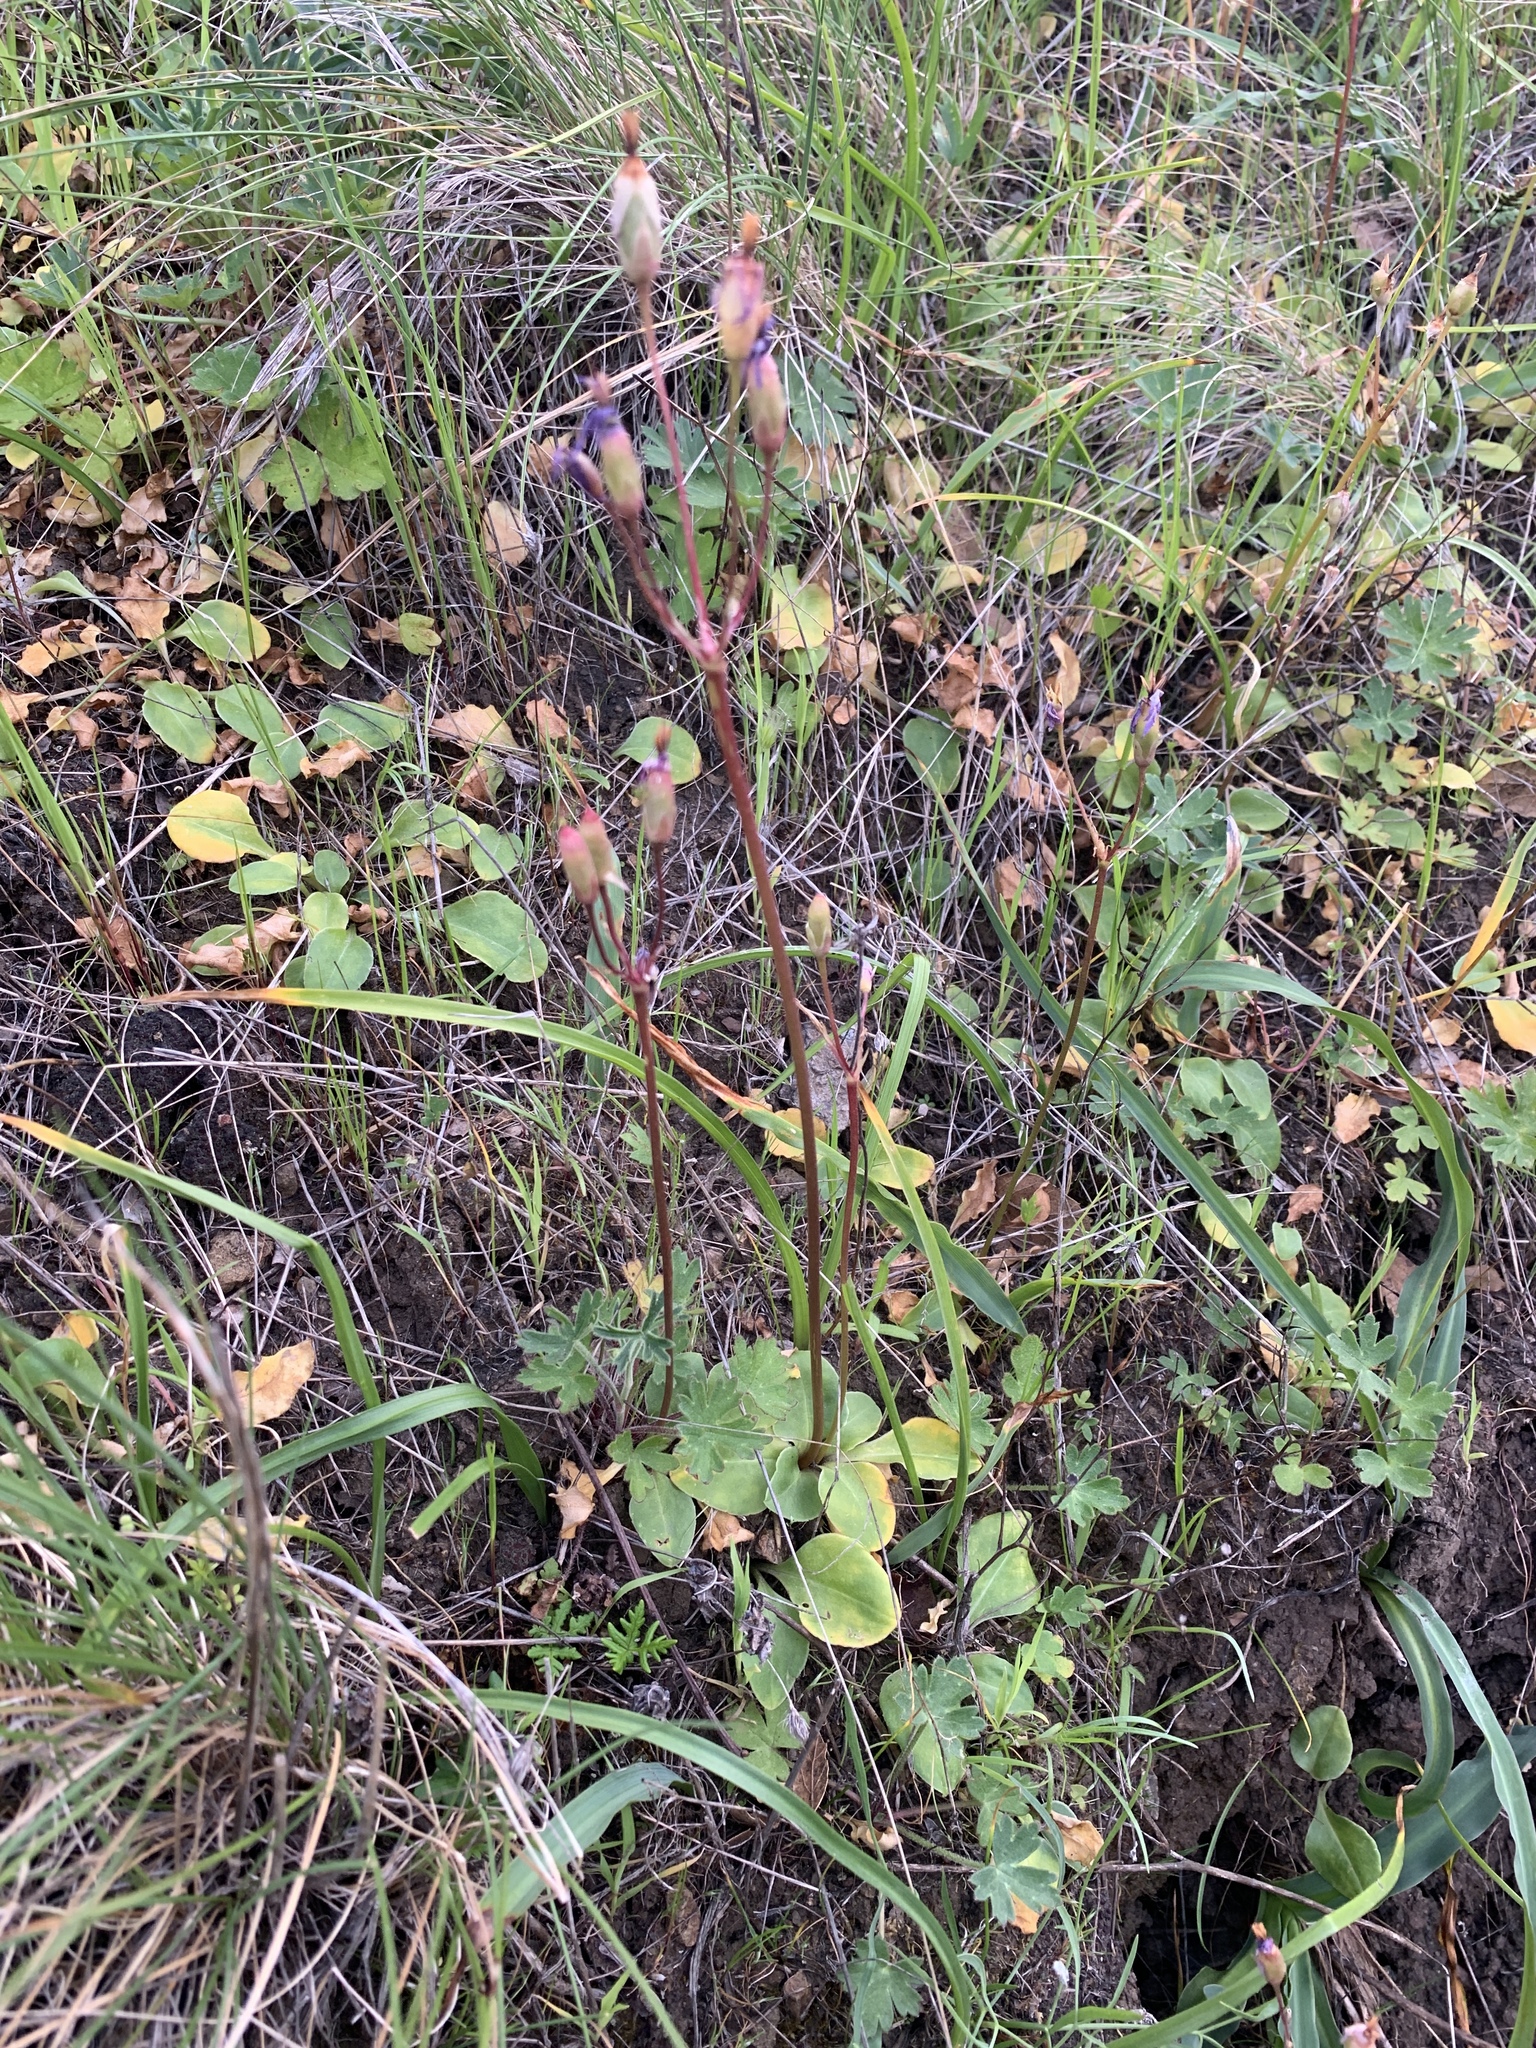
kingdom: Plantae
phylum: Tracheophyta
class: Magnoliopsida
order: Ericales
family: Primulaceae
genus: Dodecatheon
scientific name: Dodecatheon hendersonii
